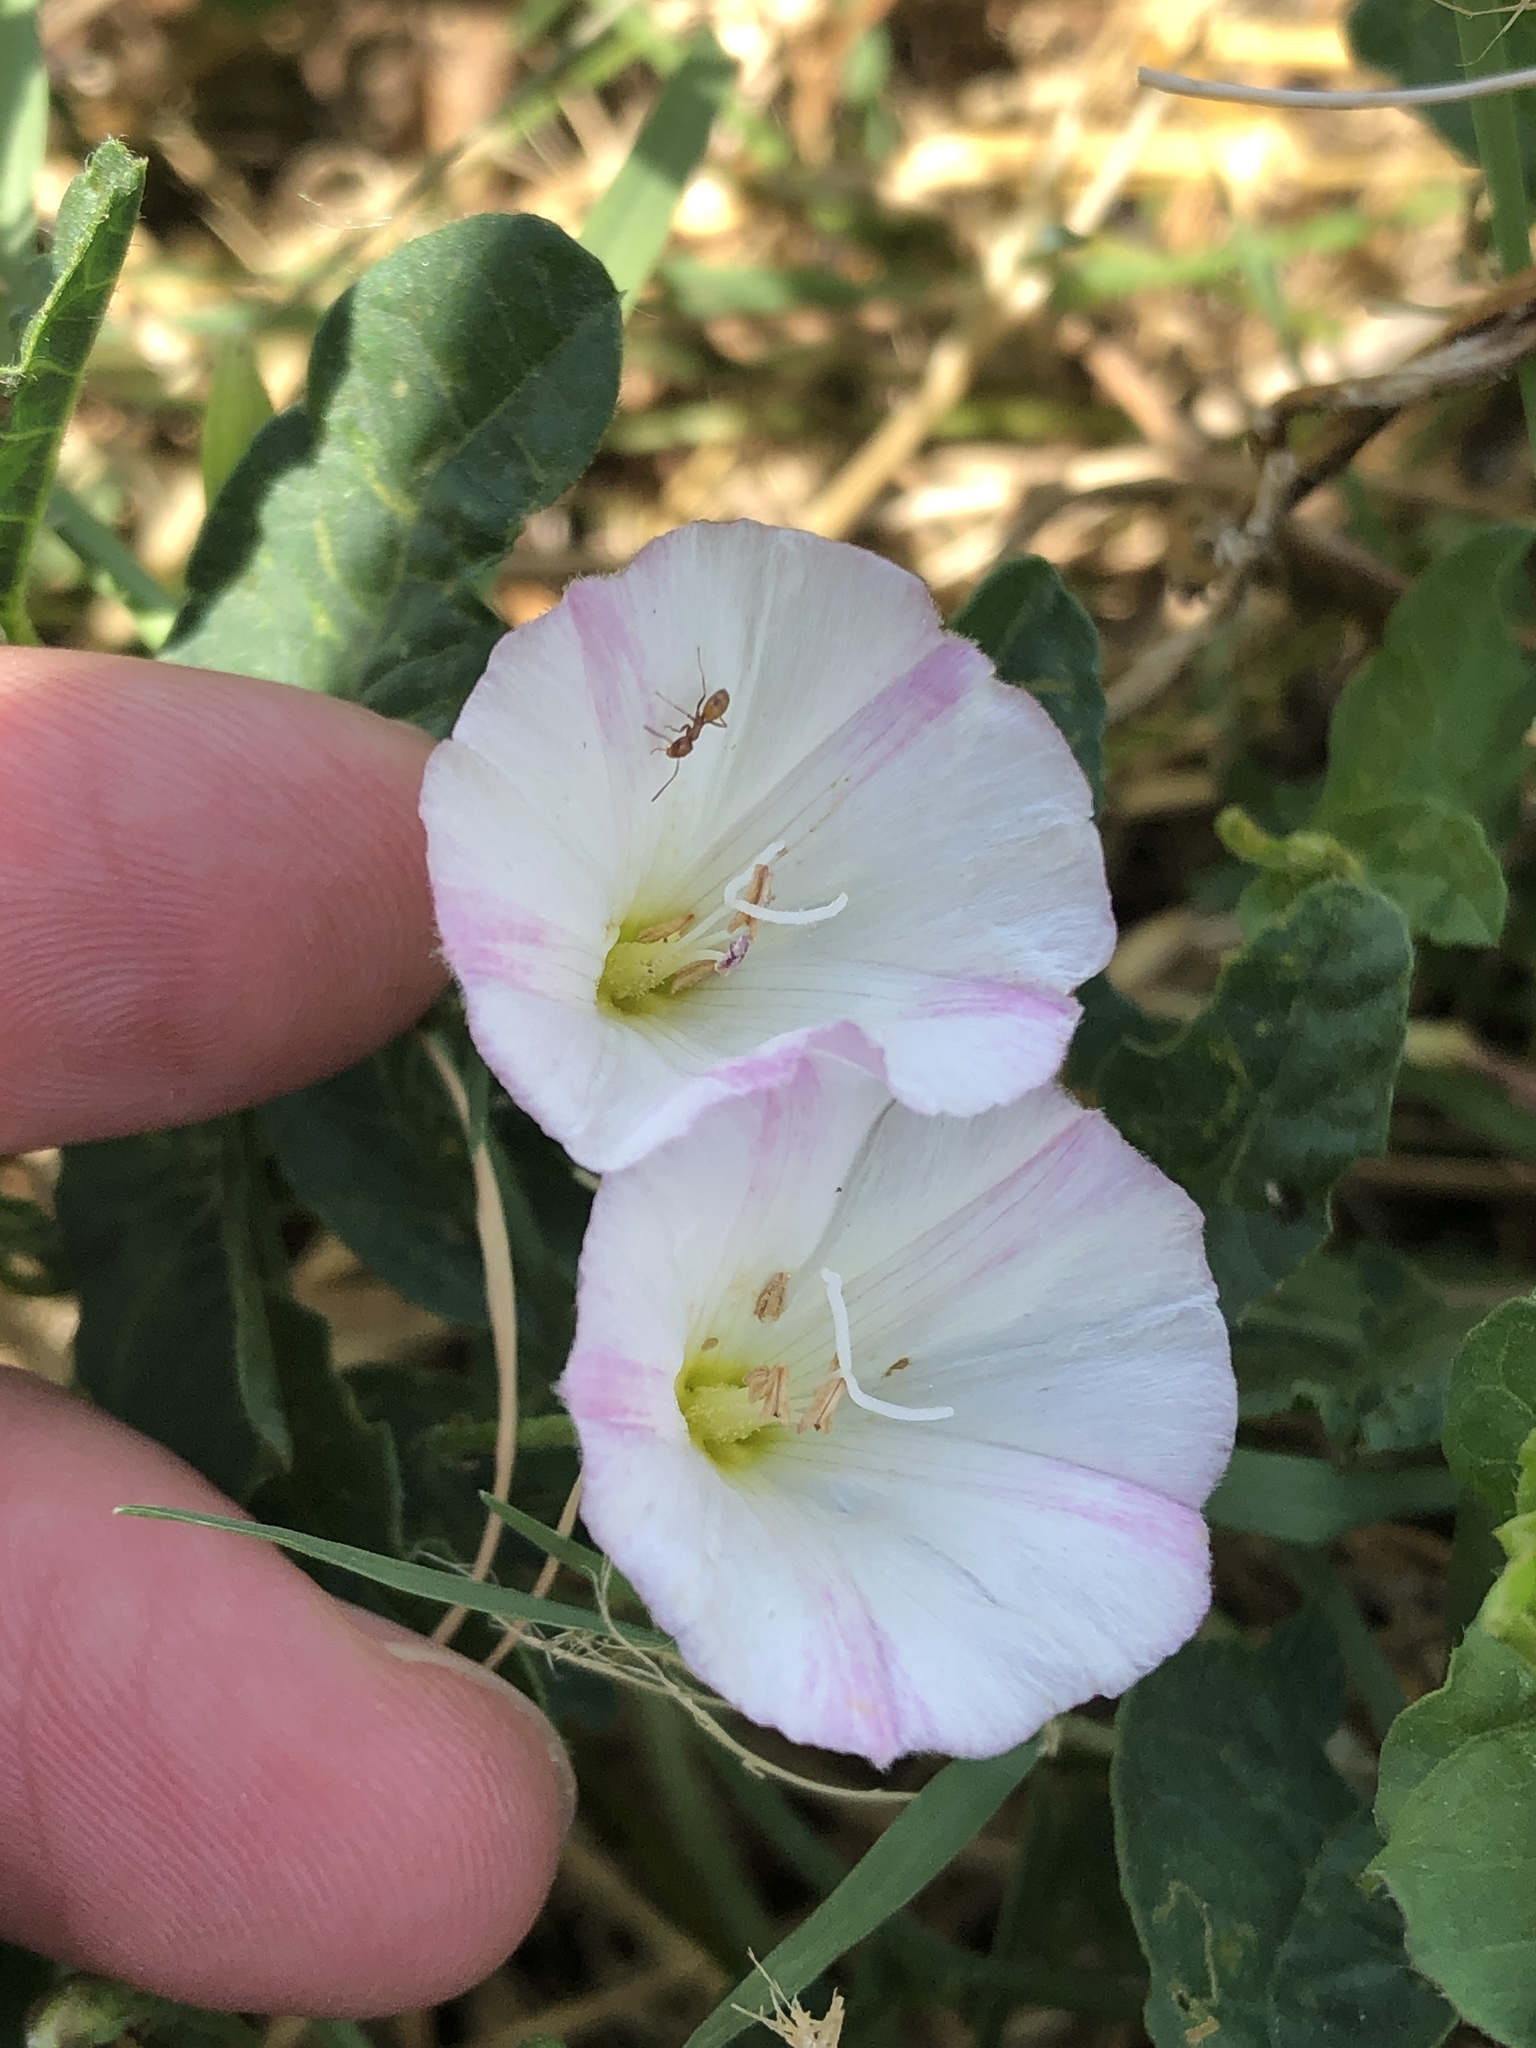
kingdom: Plantae
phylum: Tracheophyta
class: Magnoliopsida
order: Solanales
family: Convolvulaceae
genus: Convolvulus
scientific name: Convolvulus arvensis
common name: Field bindweed
